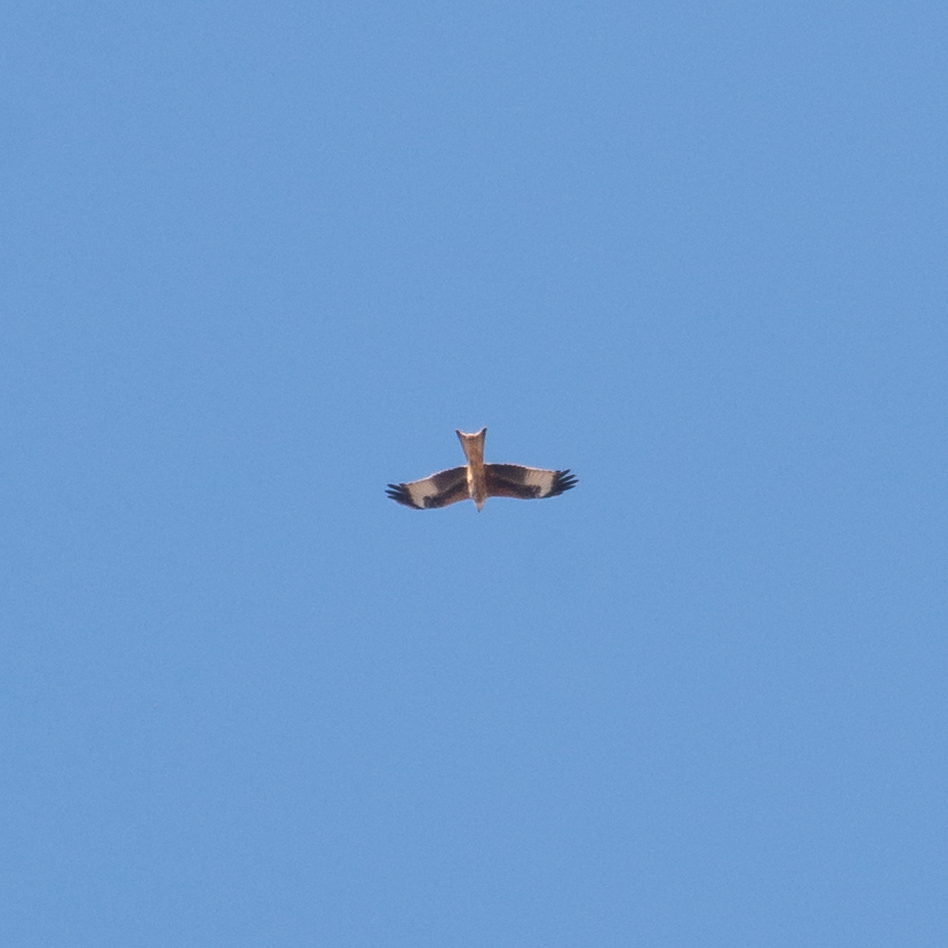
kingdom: Animalia
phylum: Chordata
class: Aves
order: Accipitriformes
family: Accipitridae
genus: Milvus
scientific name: Milvus milvus
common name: Red kite
